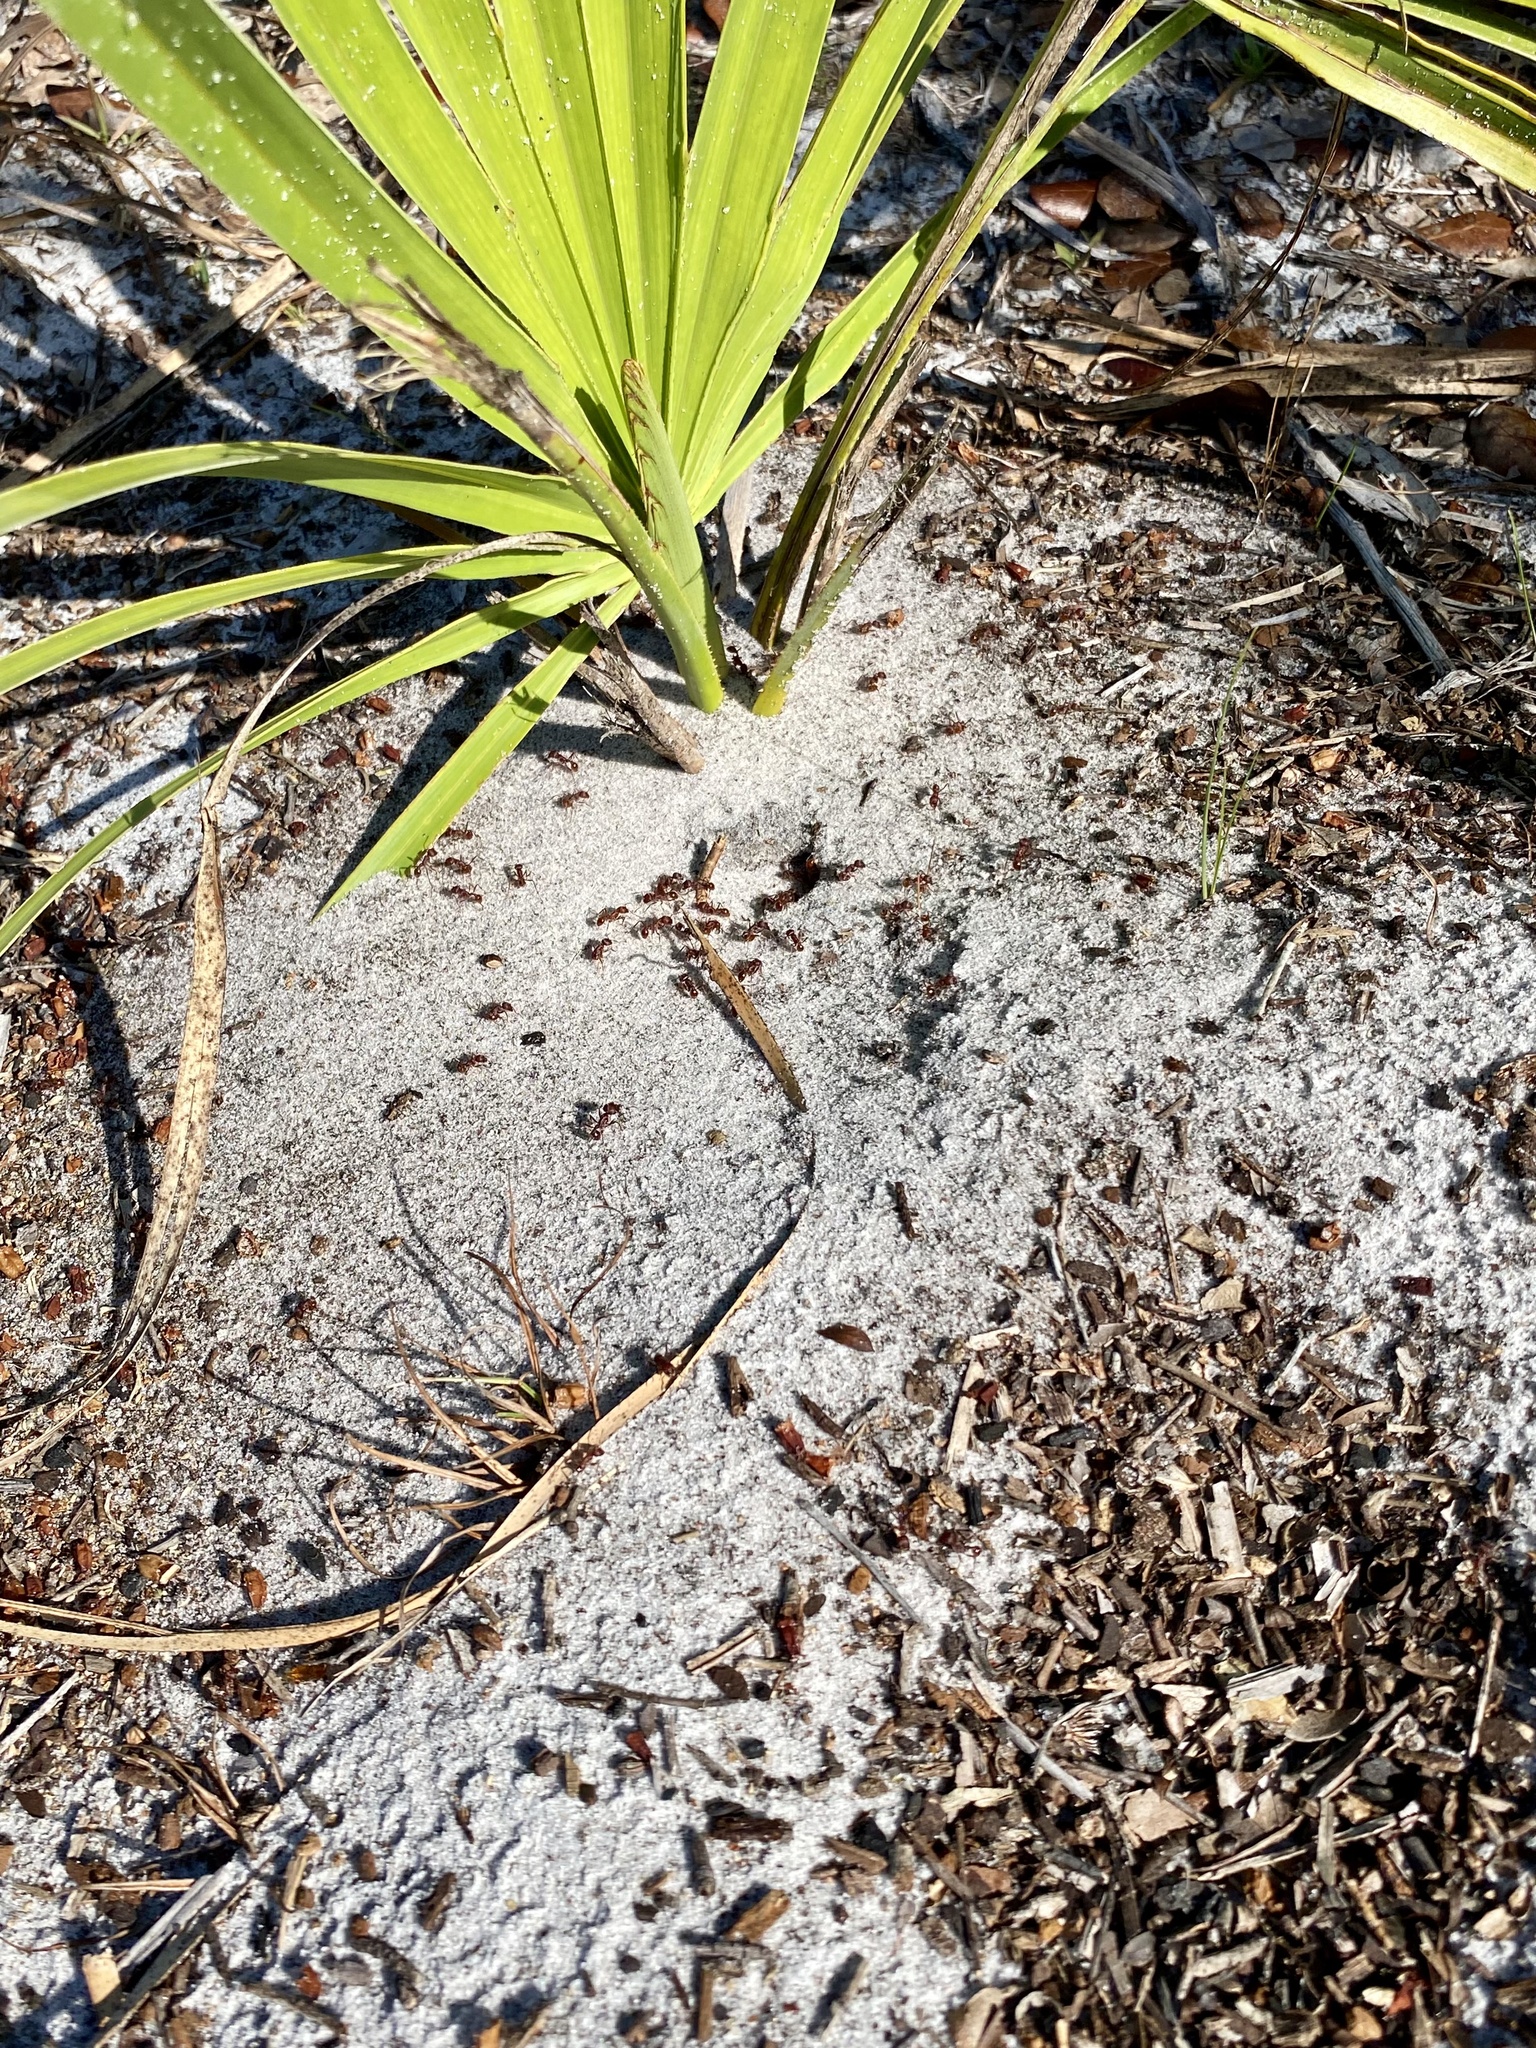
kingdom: Animalia
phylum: Arthropoda
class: Insecta
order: Hymenoptera
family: Formicidae
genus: Pogonomyrmex
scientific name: Pogonomyrmex badius
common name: Florida harvester ant
